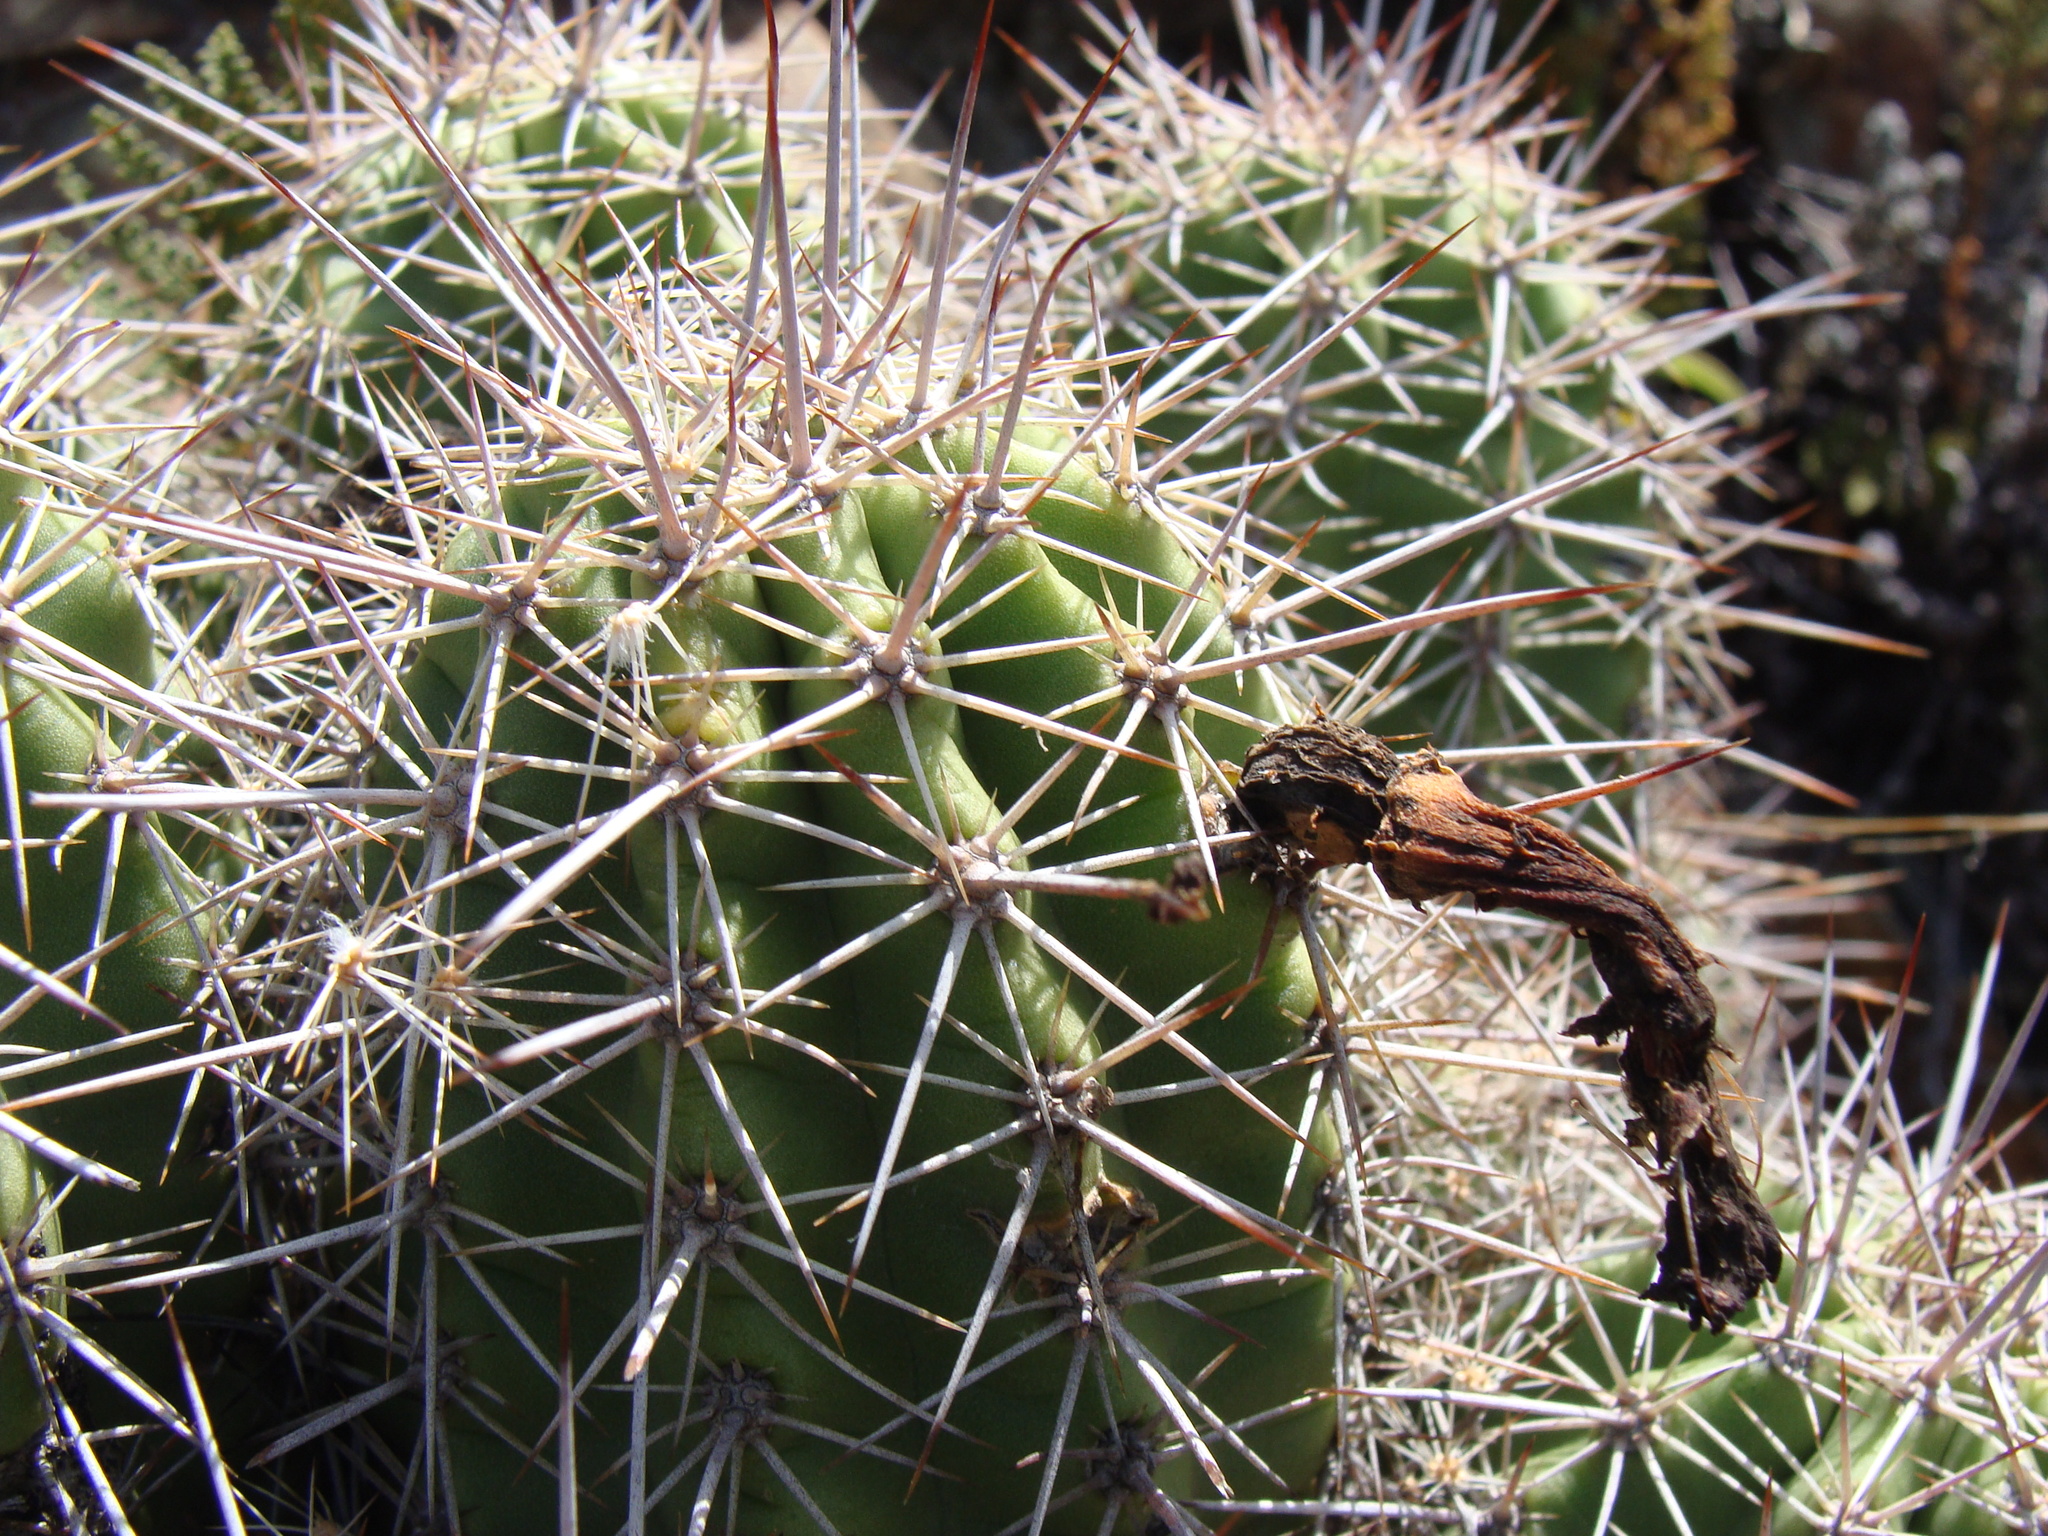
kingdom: Plantae
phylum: Tracheophyta
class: Magnoliopsida
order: Caryophyllales
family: Cactaceae
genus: Echinocereus
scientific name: Echinocereus coccineus
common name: Scarlet hedgehog cactus
